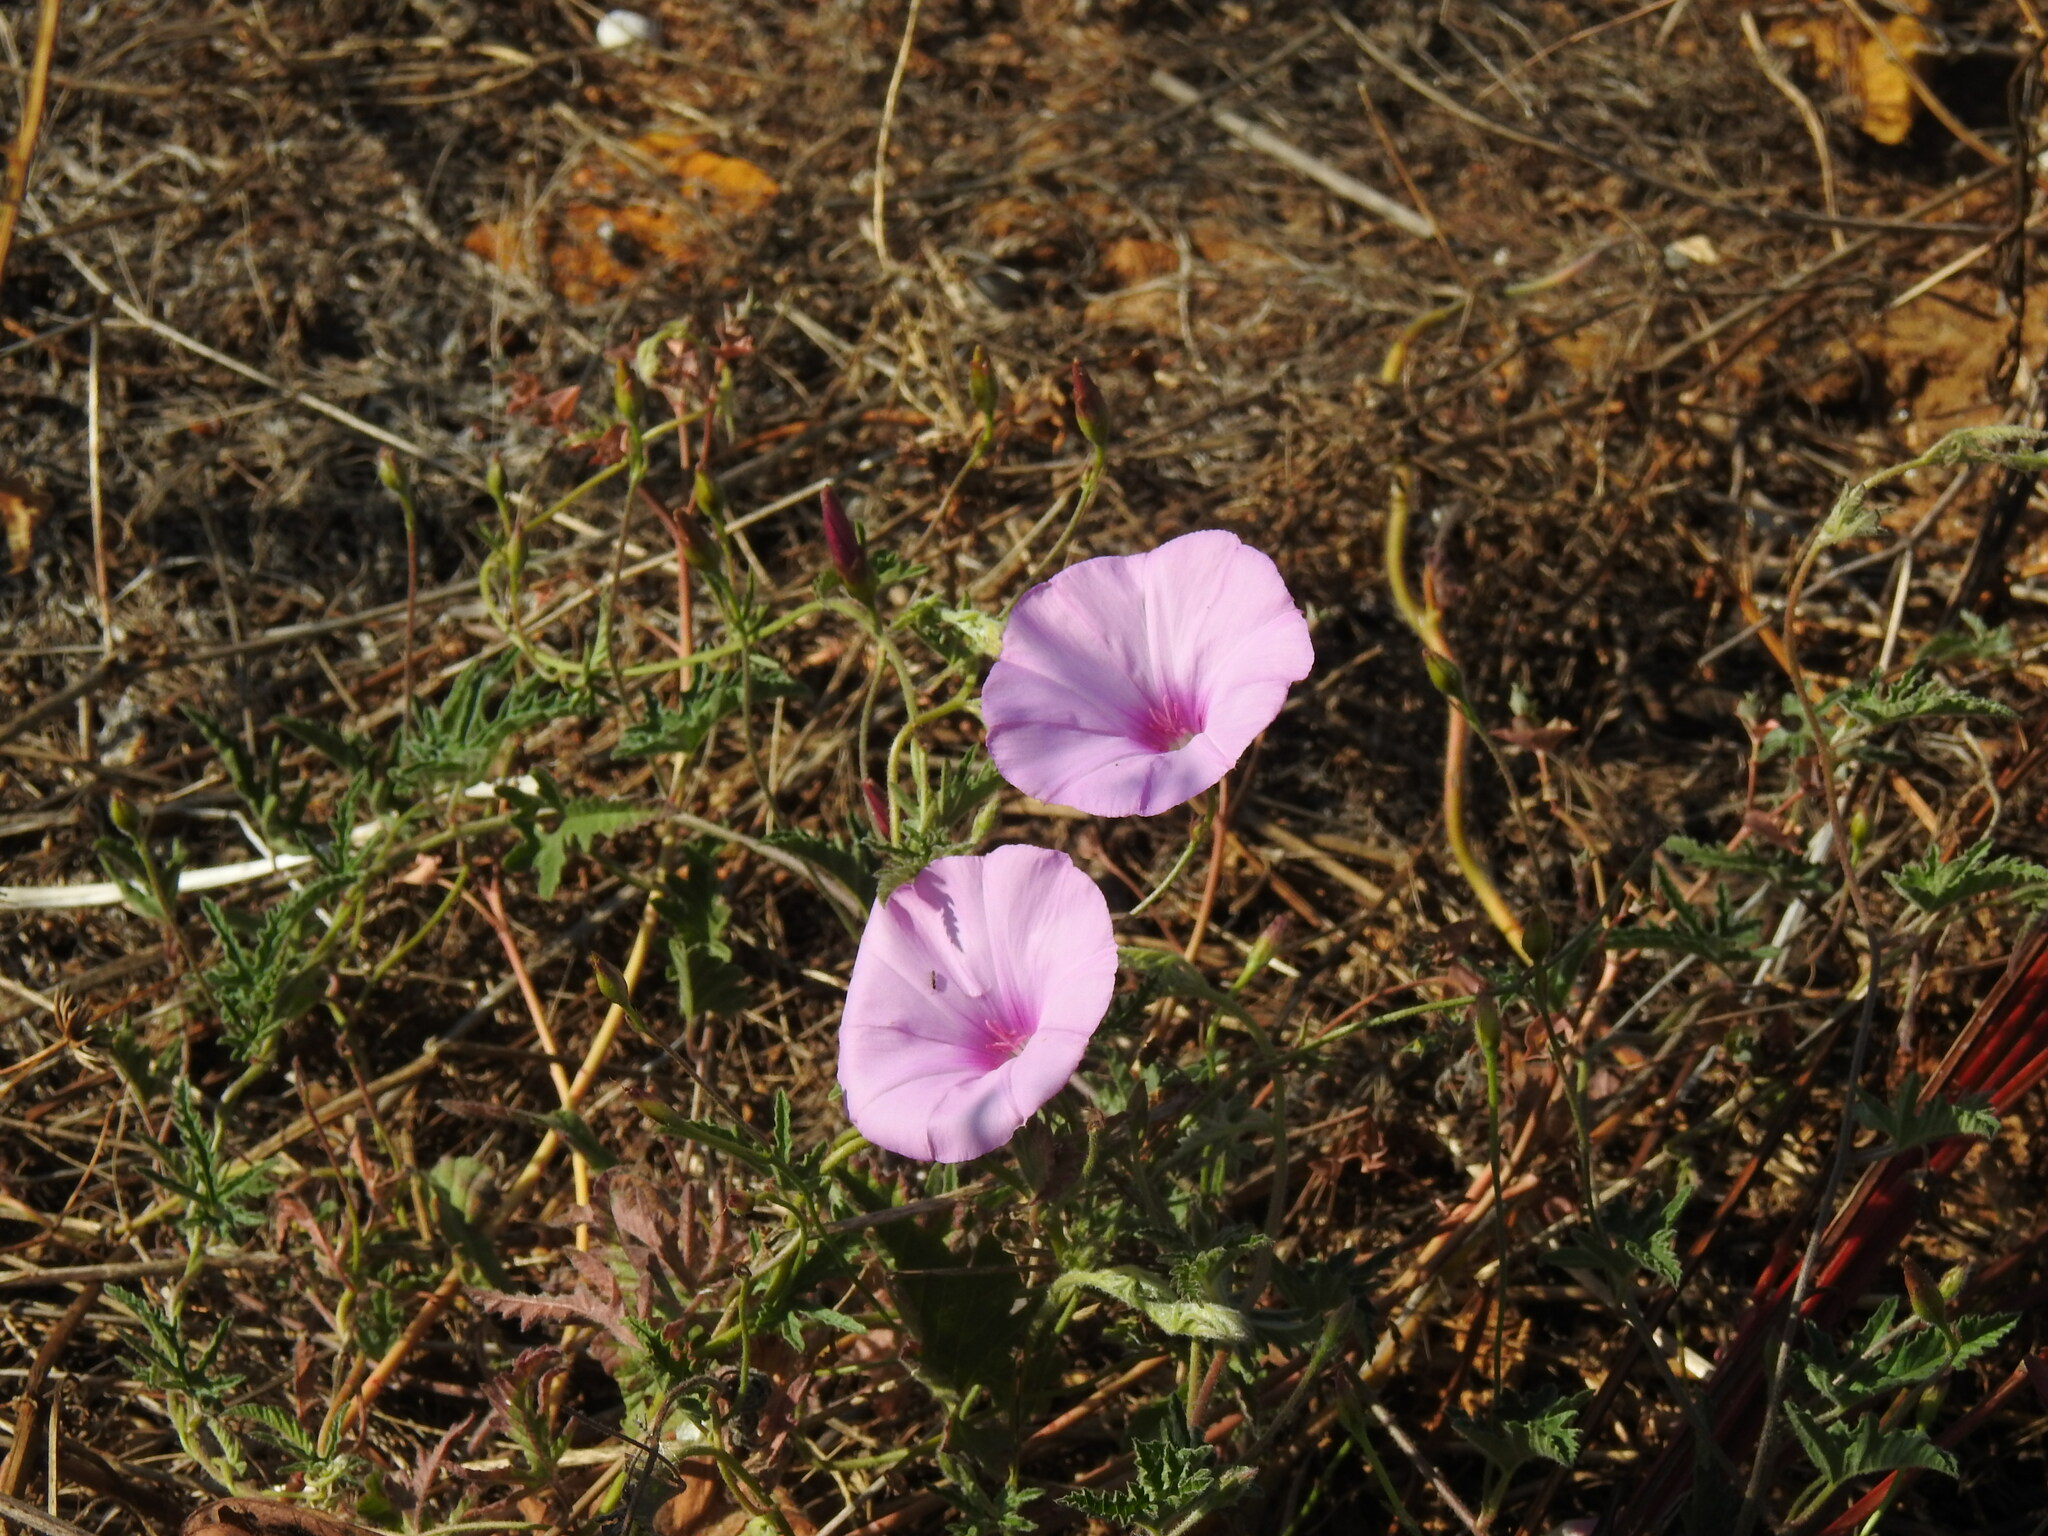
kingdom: Plantae
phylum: Tracheophyta
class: Magnoliopsida
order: Solanales
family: Convolvulaceae
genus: Convolvulus
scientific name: Convolvulus althaeoides
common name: Mallow bindweed
